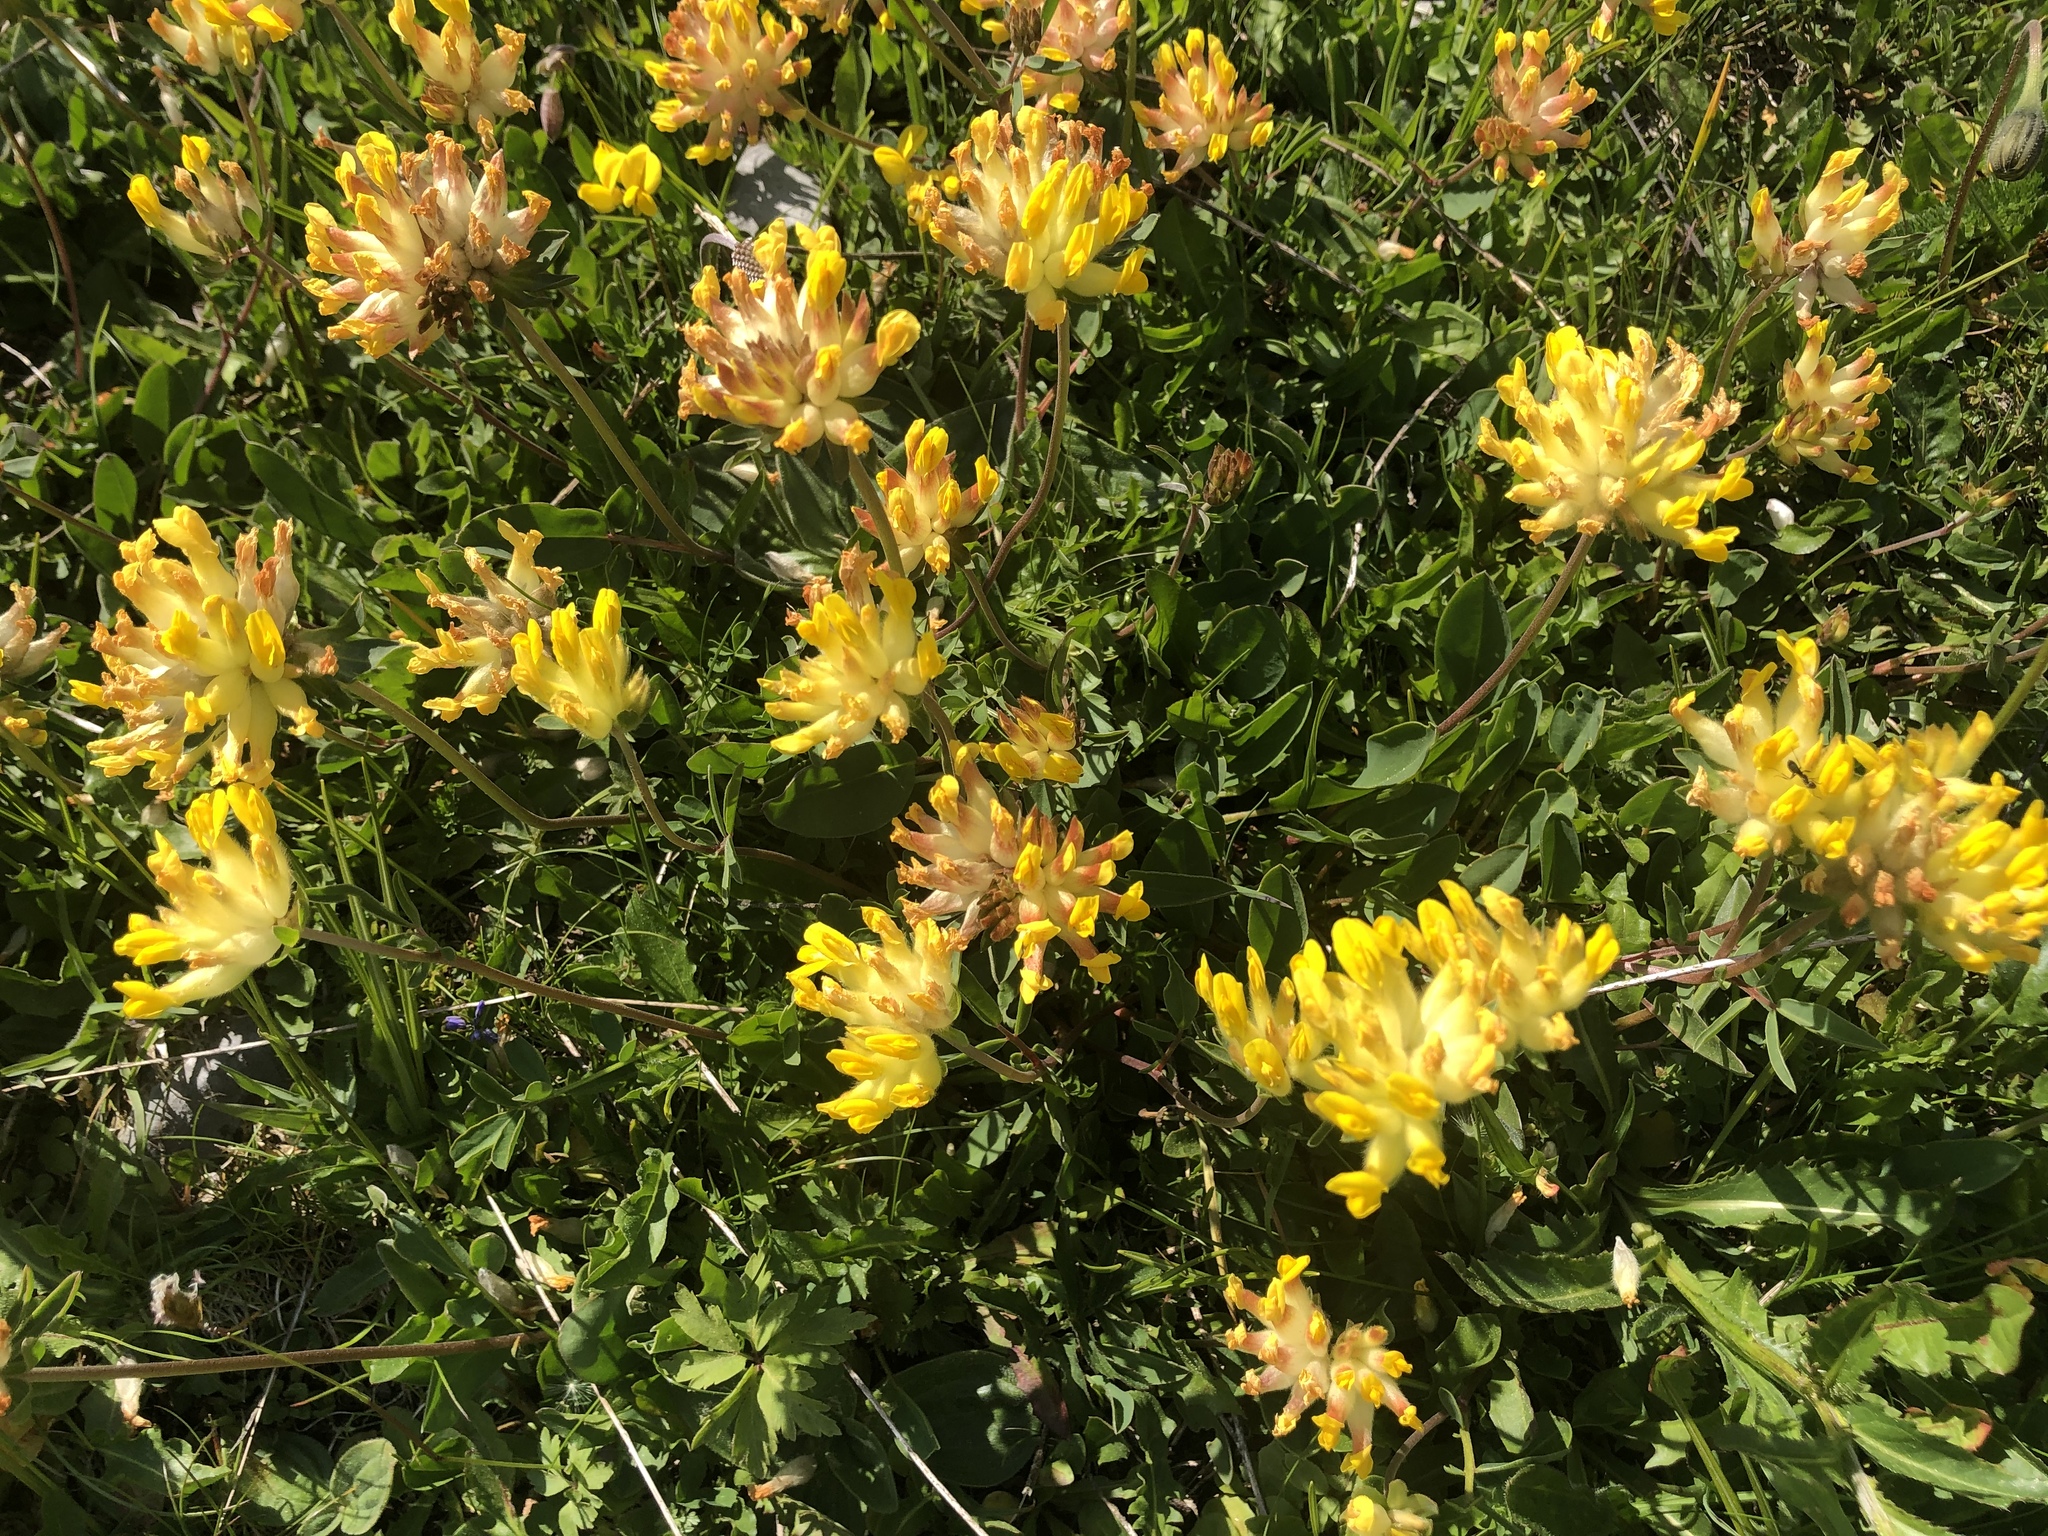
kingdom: Plantae
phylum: Tracheophyta
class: Magnoliopsida
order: Fabales
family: Fabaceae
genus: Anthyllis
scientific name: Anthyllis vulneraria
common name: Kidney vetch
